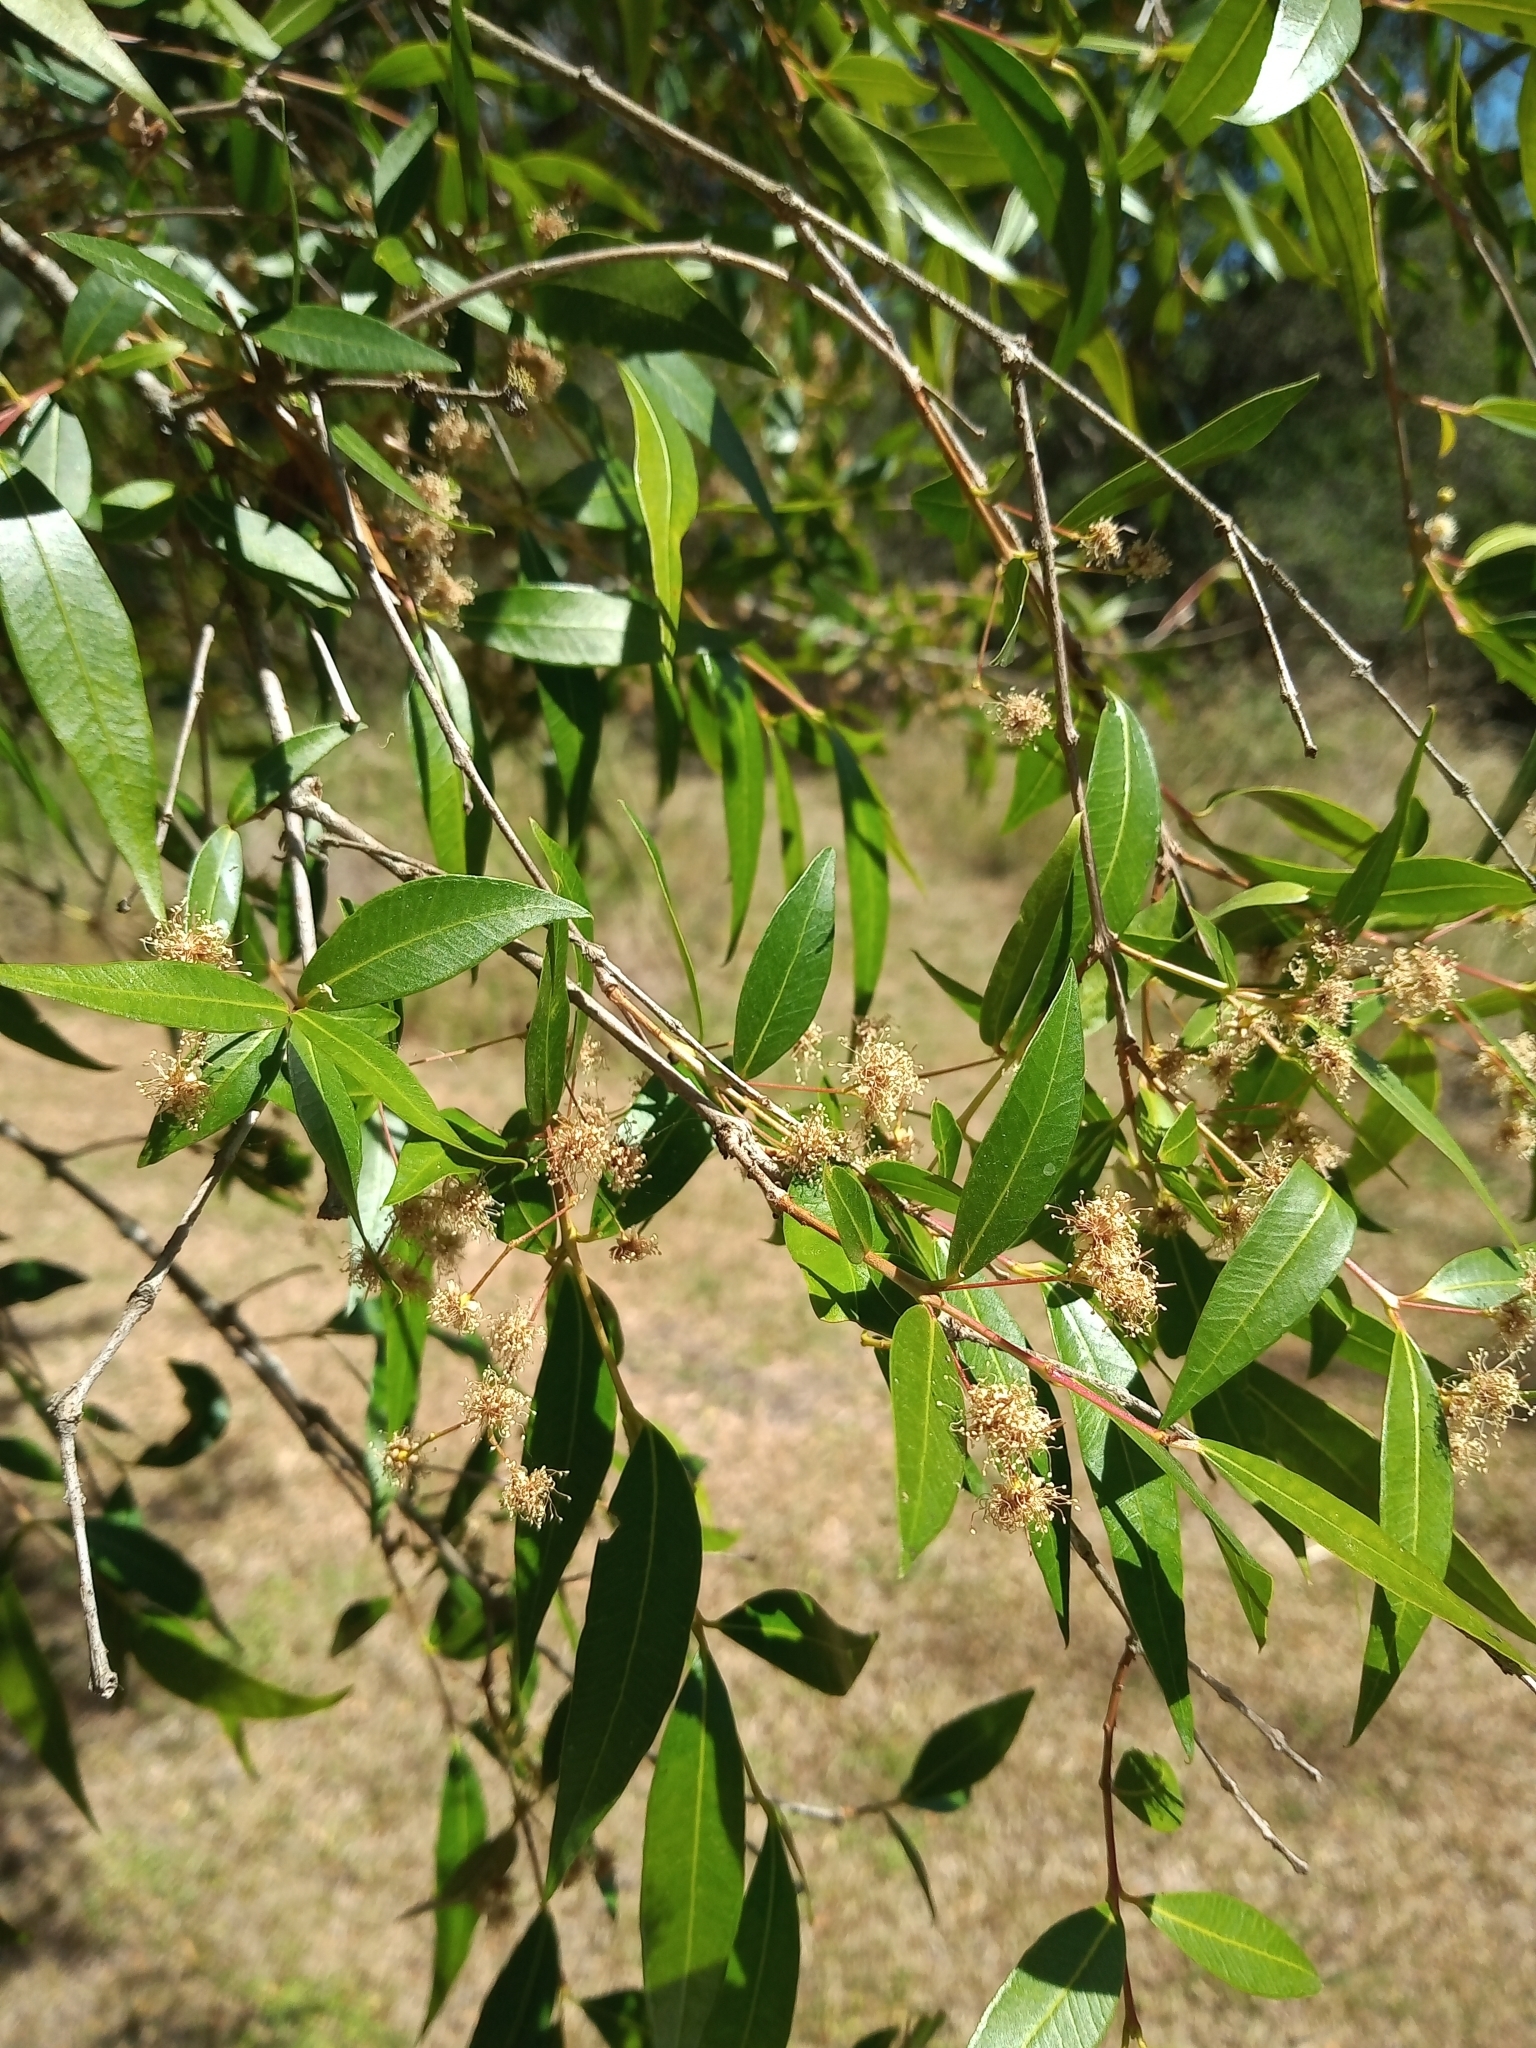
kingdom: Plantae
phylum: Tracheophyta
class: Magnoliopsida
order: Myrtales
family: Myrtaceae
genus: Blepharocalyx
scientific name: Blepharocalyx salicifolius
